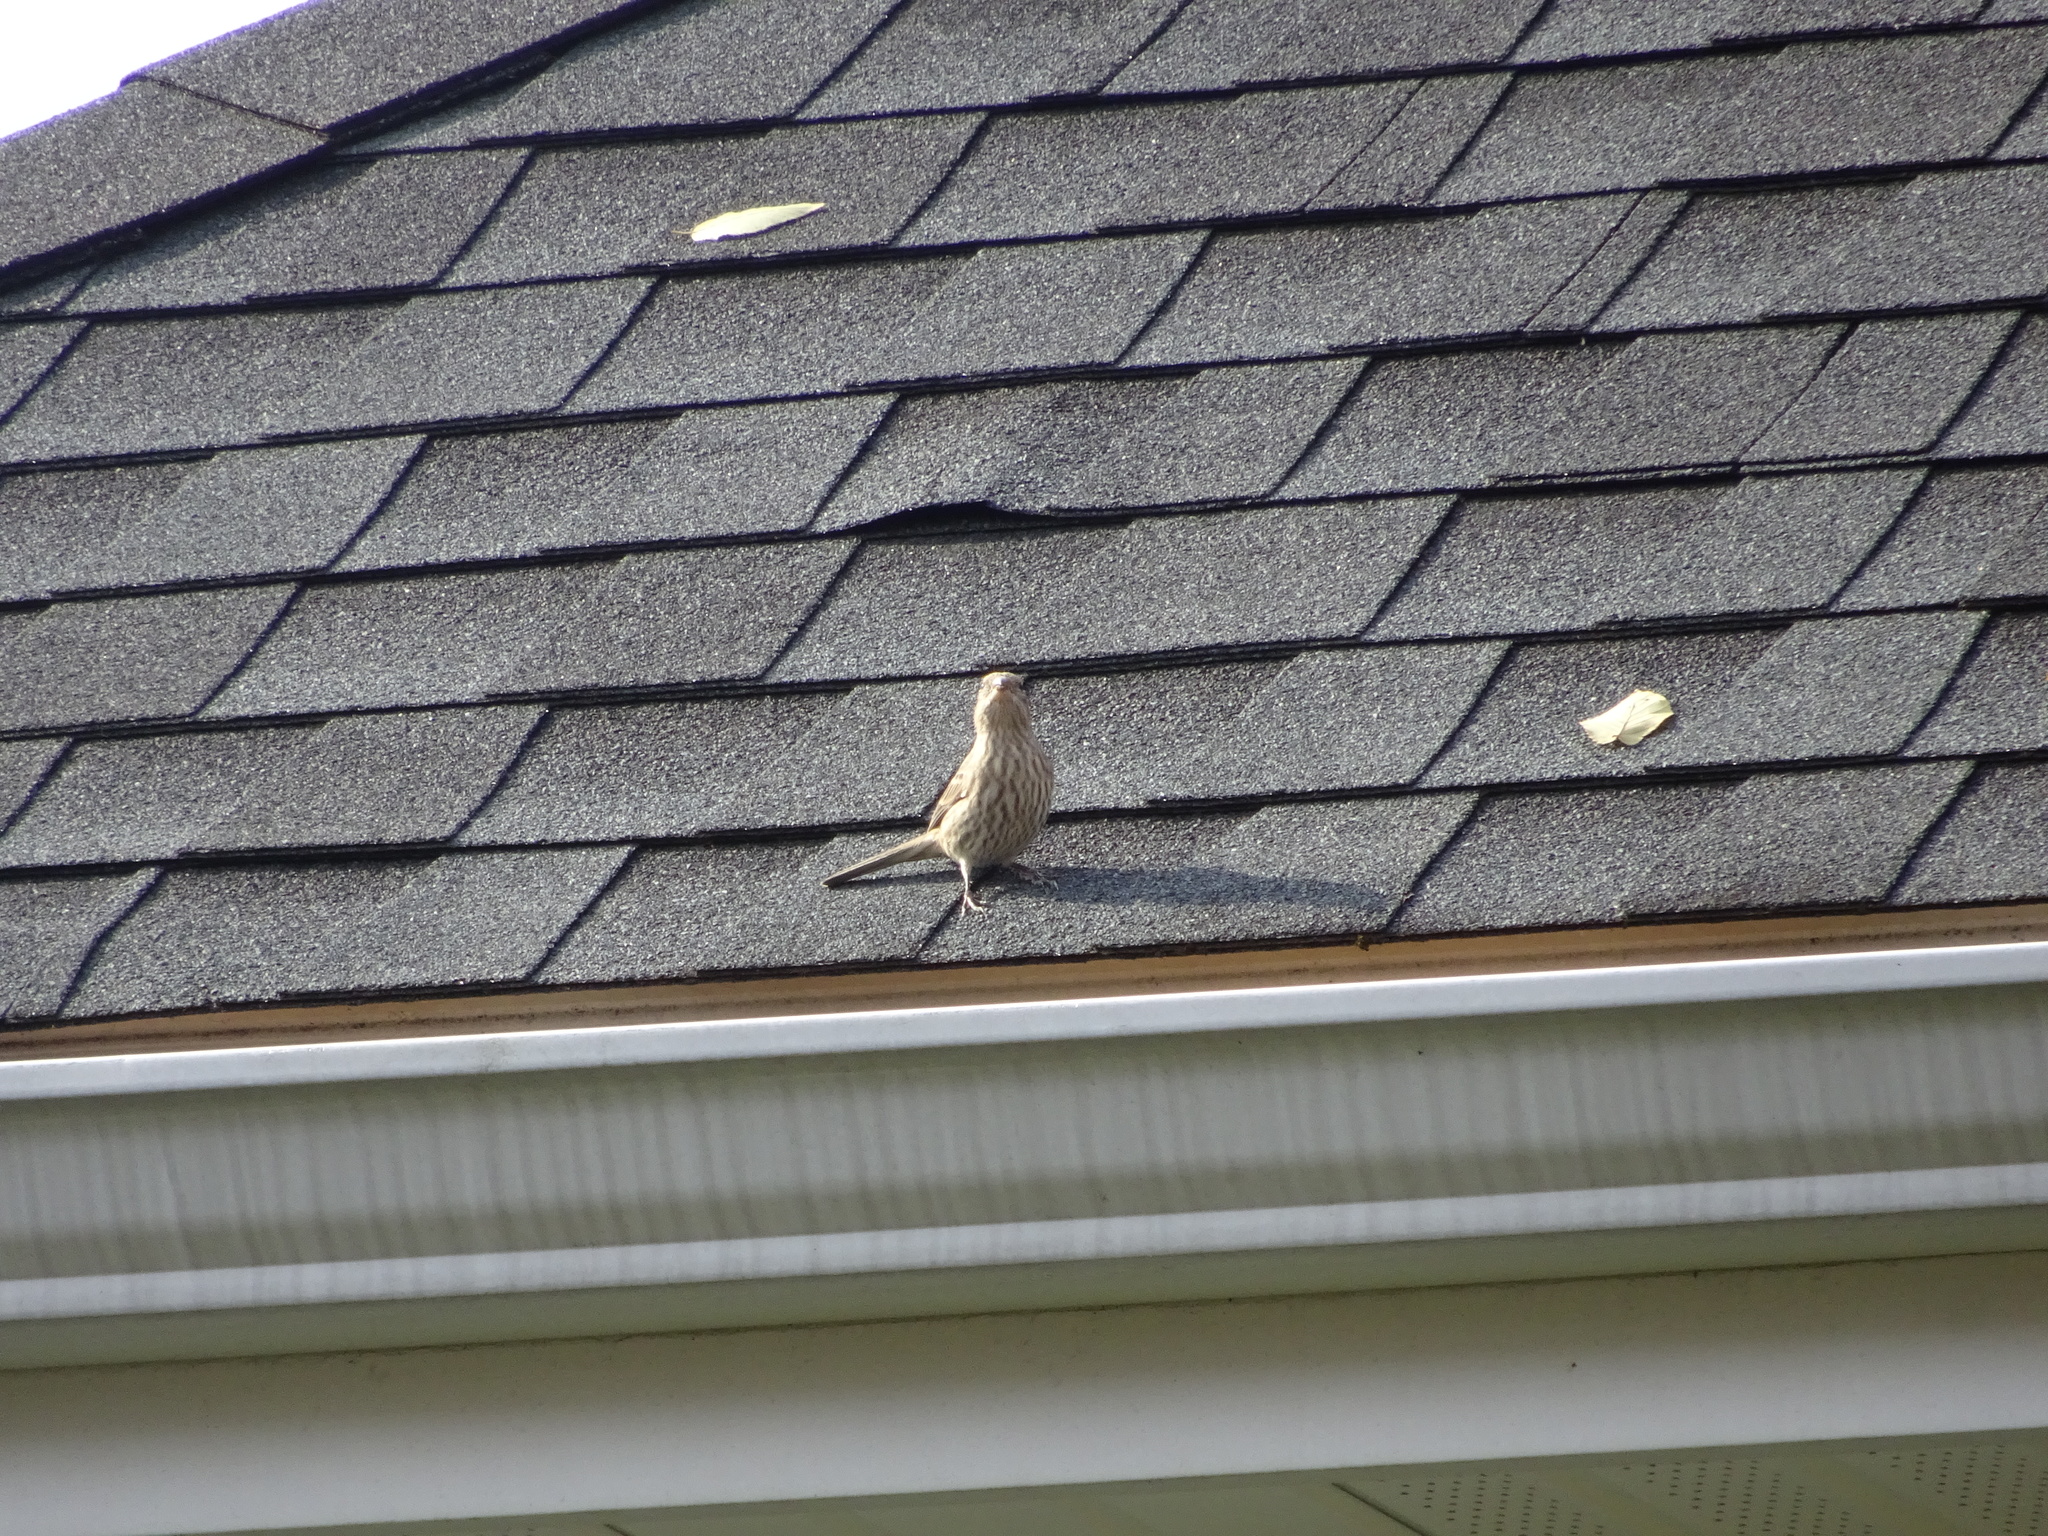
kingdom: Animalia
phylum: Chordata
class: Aves
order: Passeriformes
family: Fringillidae
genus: Haemorhous
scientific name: Haemorhous mexicanus
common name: House finch
